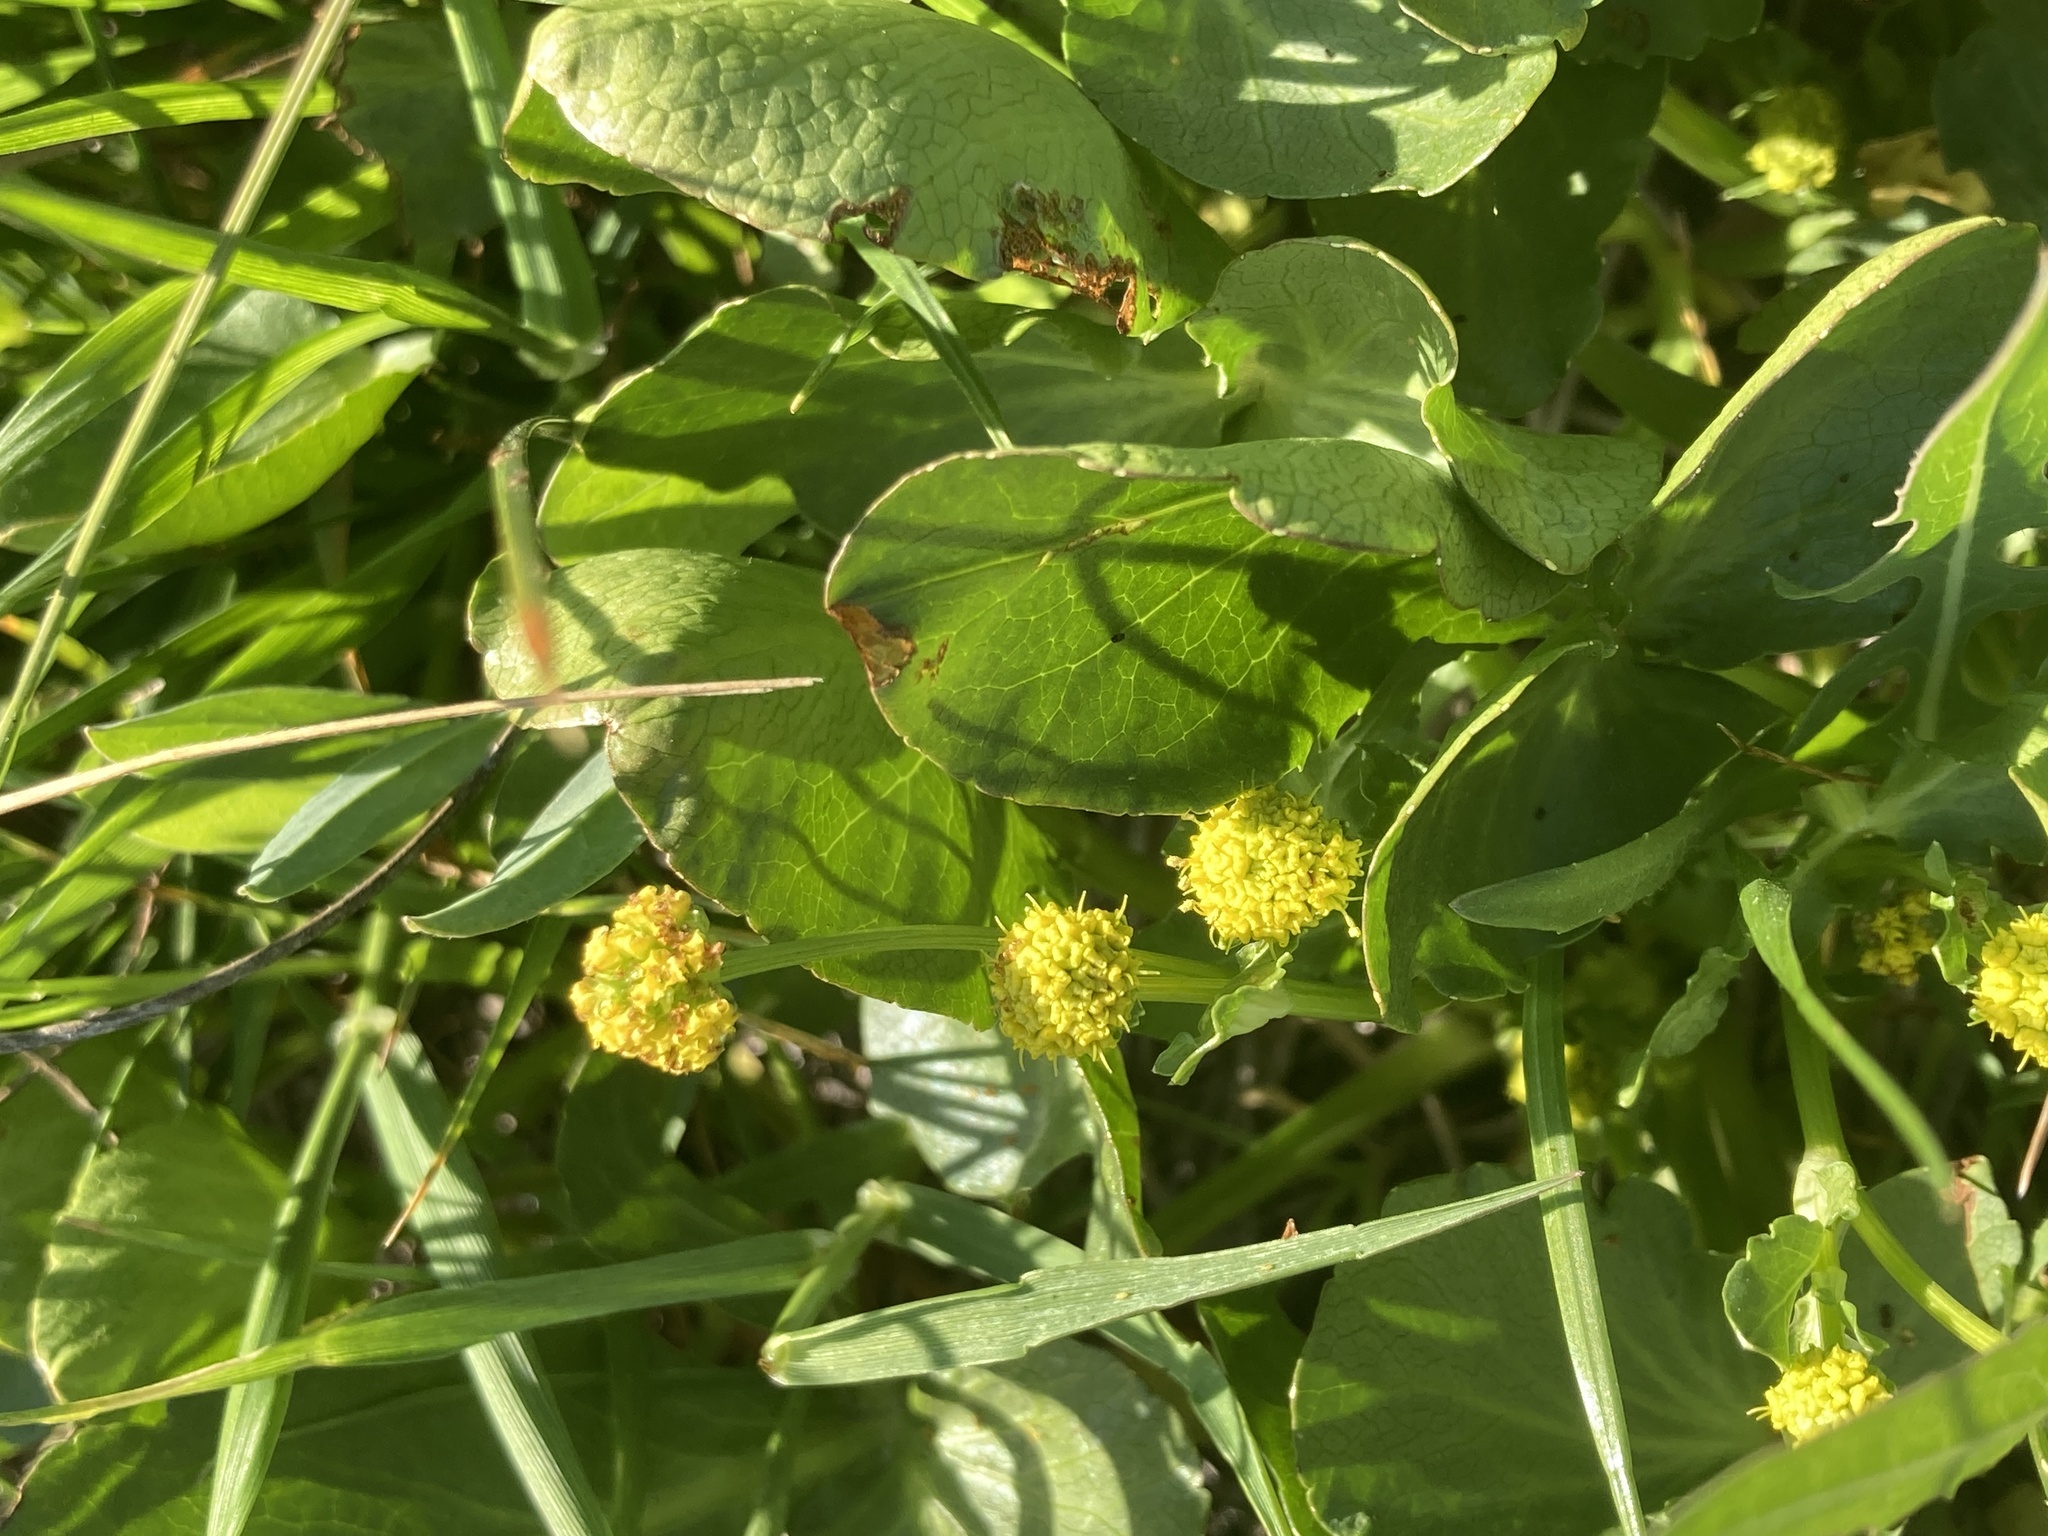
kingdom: Plantae
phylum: Tracheophyta
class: Magnoliopsida
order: Apiales
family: Apiaceae
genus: Sanicula
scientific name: Sanicula maritima
